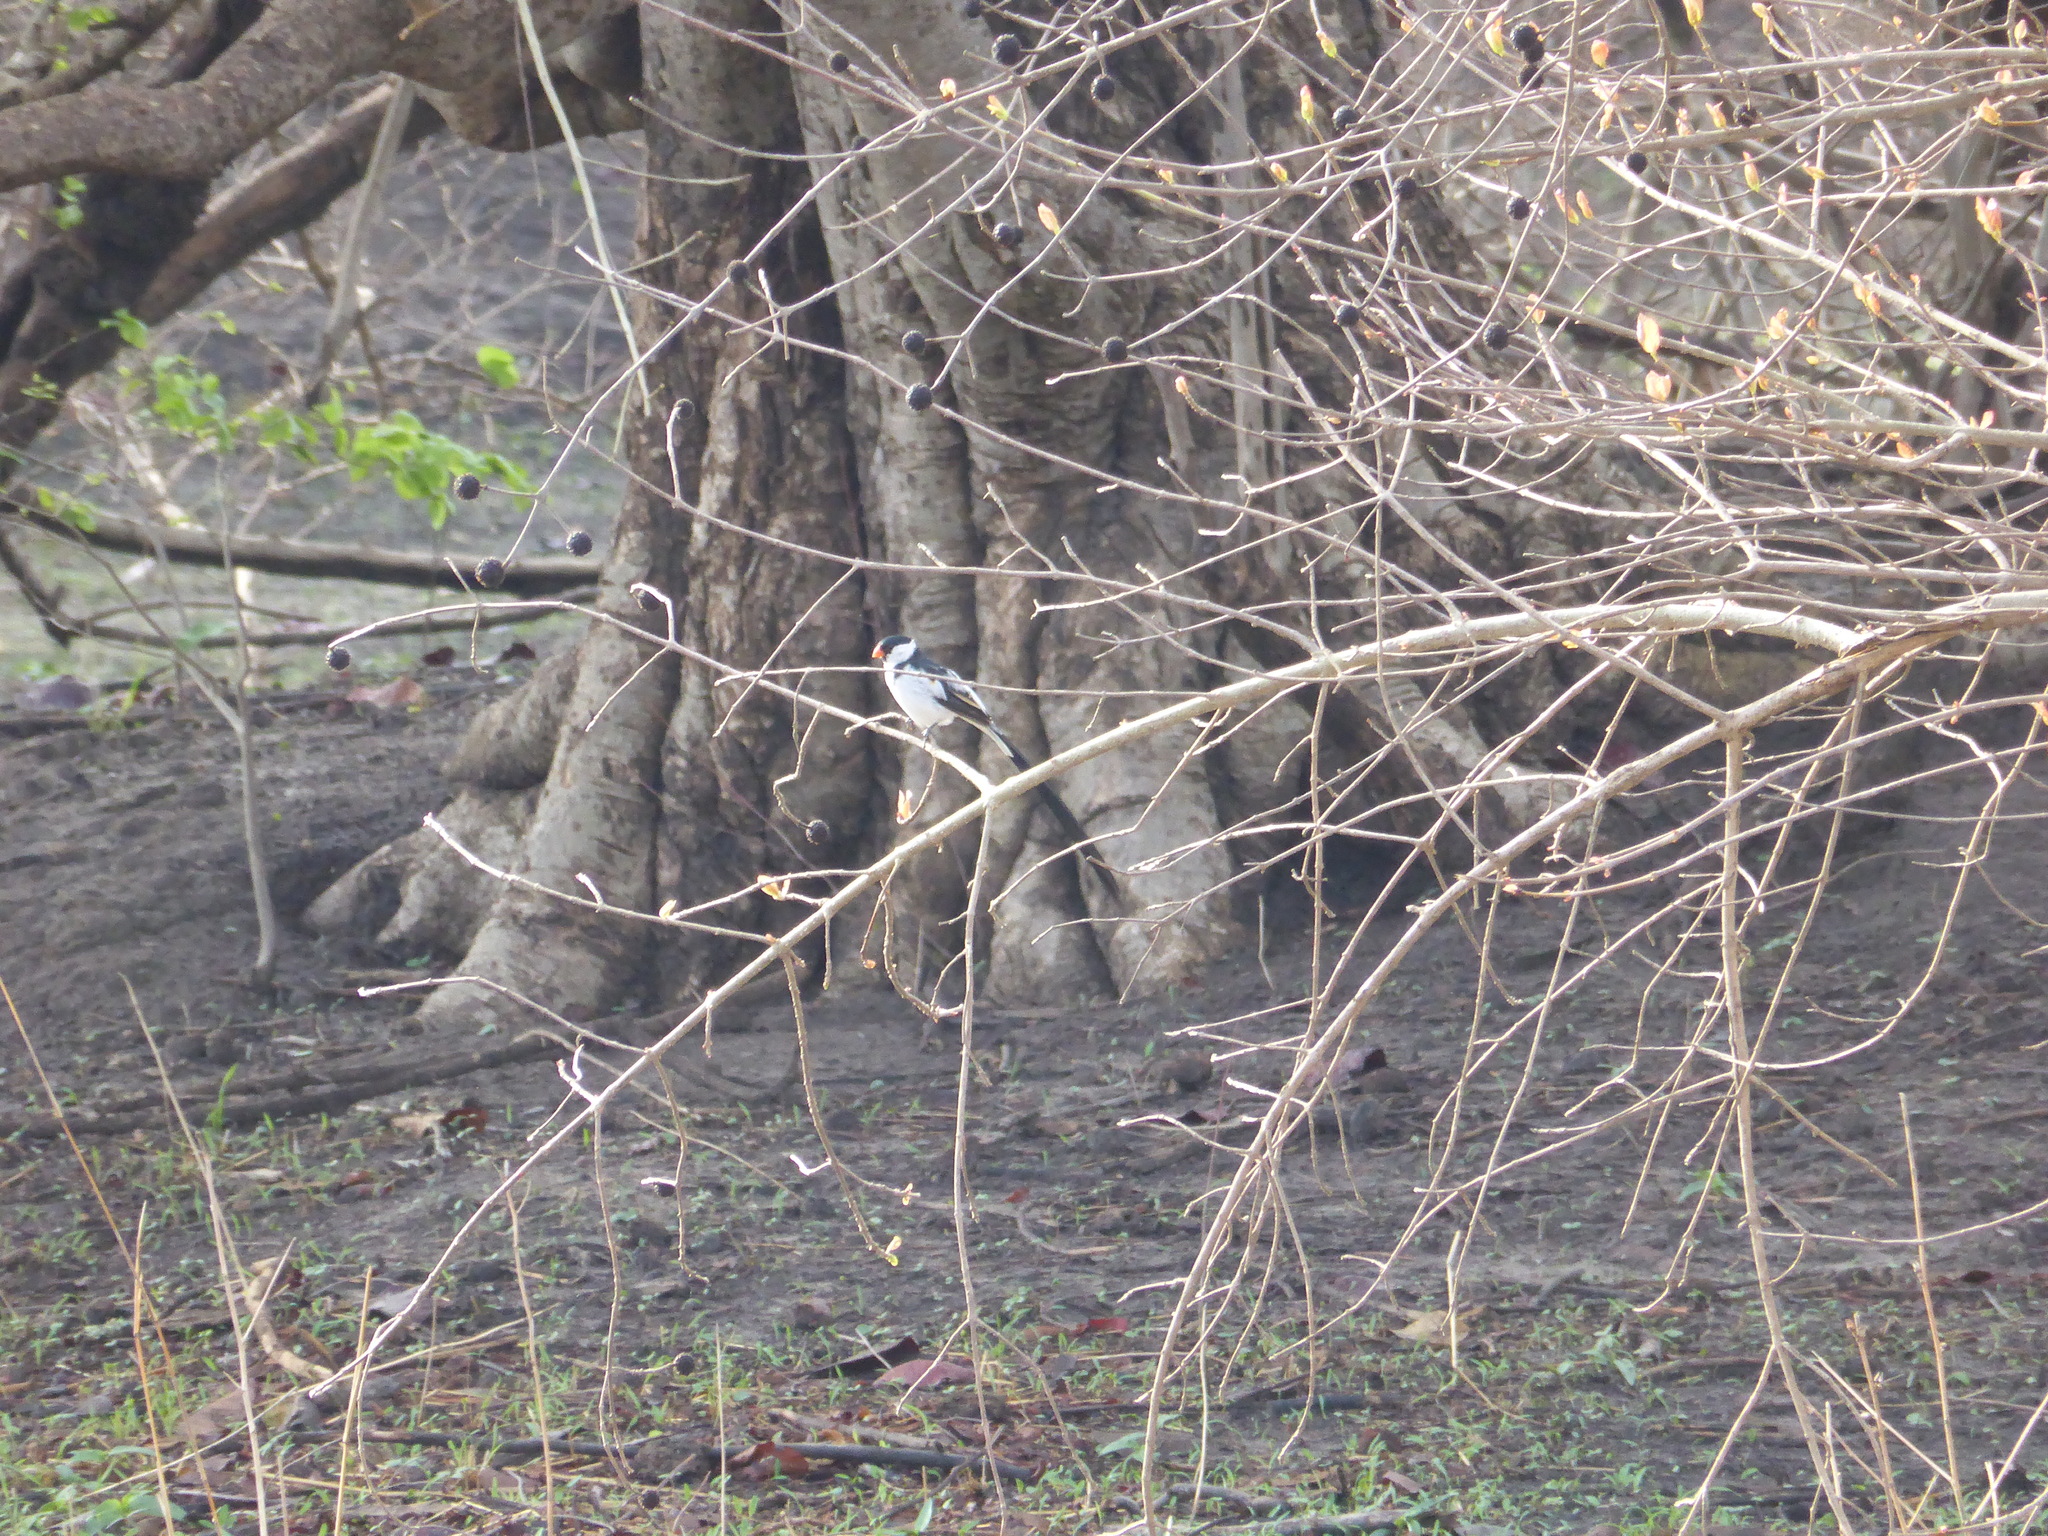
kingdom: Animalia
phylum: Chordata
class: Aves
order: Passeriformes
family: Viduidae
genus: Vidua
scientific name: Vidua macroura
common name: Pin-tailed whydah
